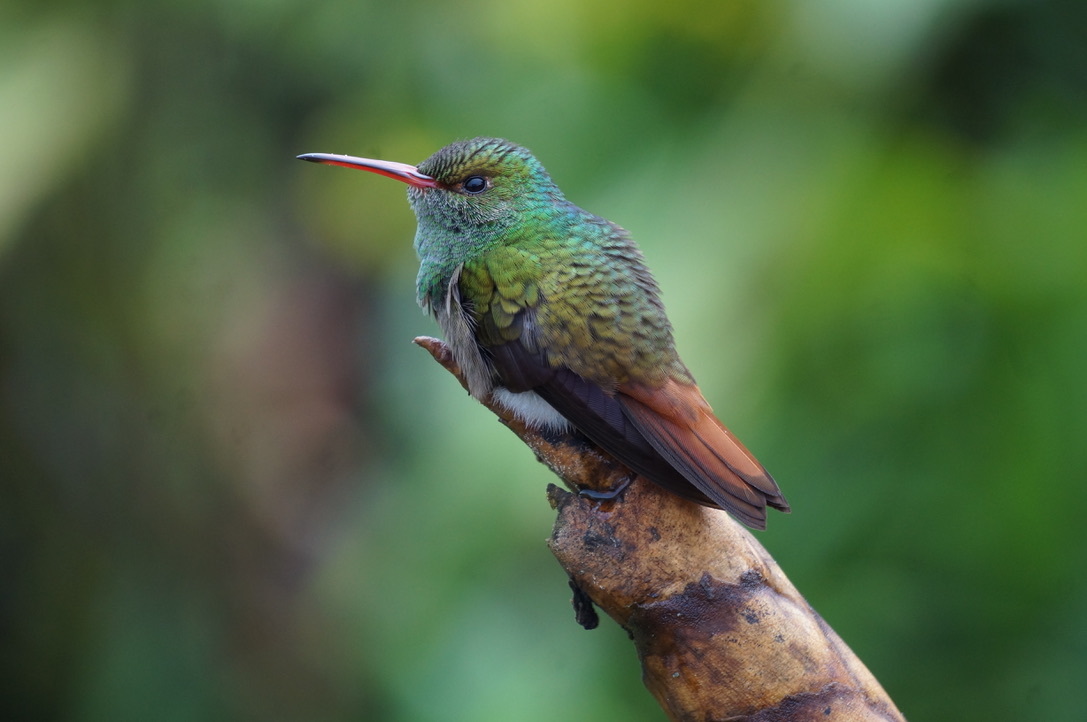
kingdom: Animalia
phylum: Chordata
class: Aves
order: Apodiformes
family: Trochilidae
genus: Amazilia
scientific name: Amazilia tzacatl
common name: Rufous-tailed hummingbird
